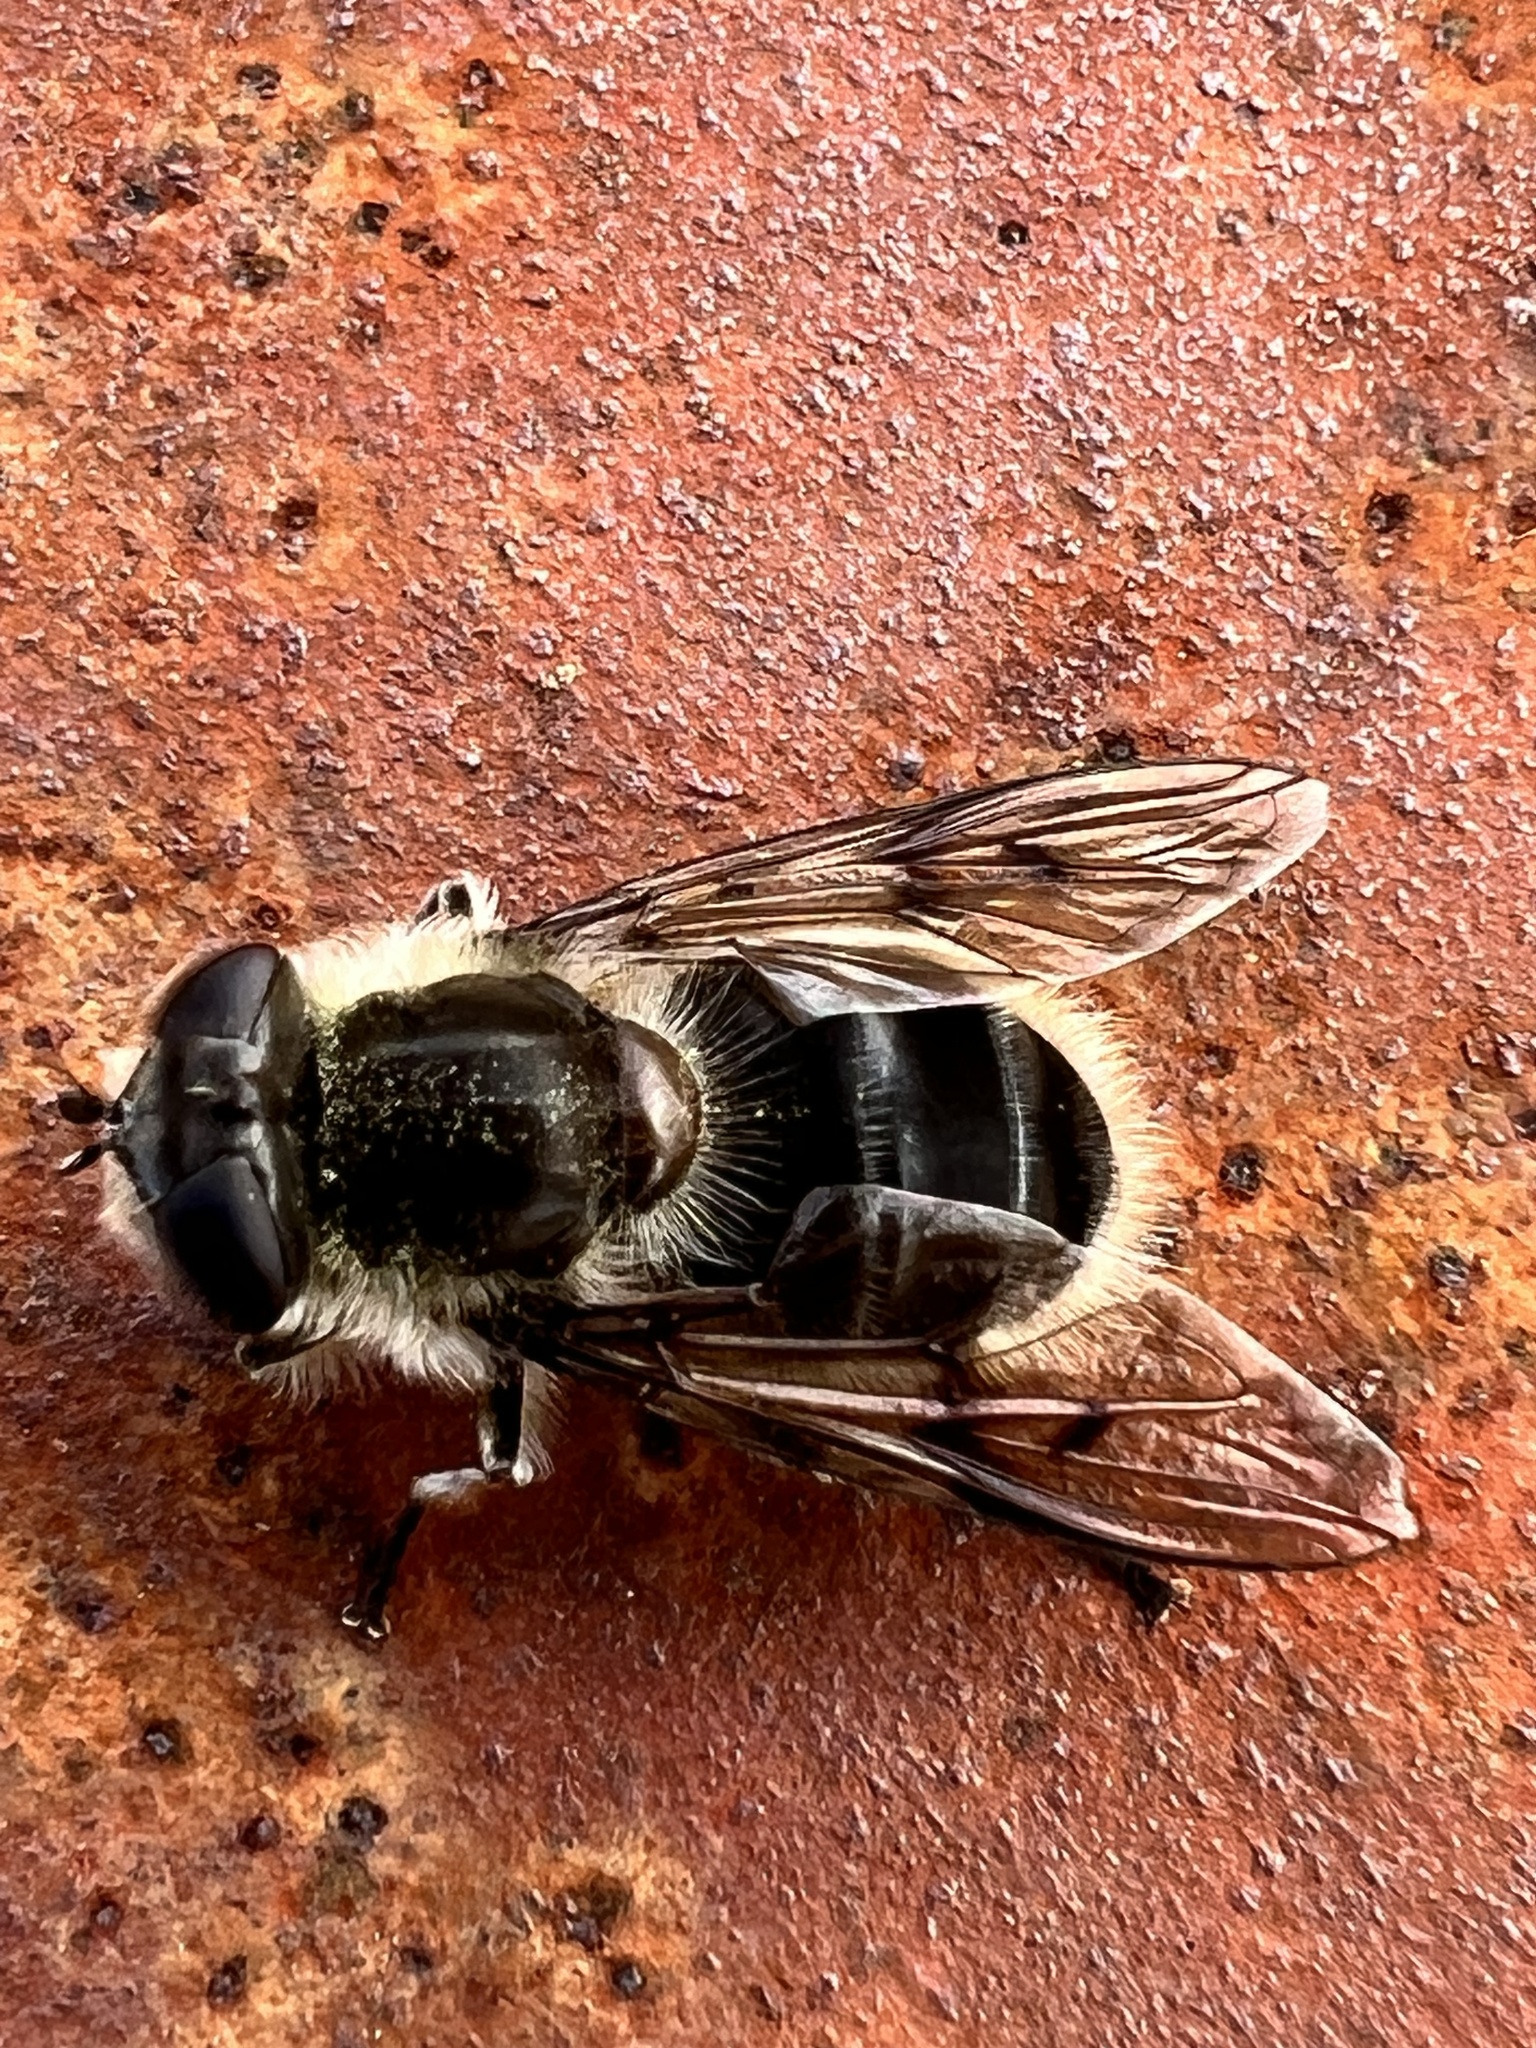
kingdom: Animalia
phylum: Arthropoda
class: Insecta
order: Diptera
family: Syrphidae
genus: Pyritis
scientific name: Pyritis kincaidii
